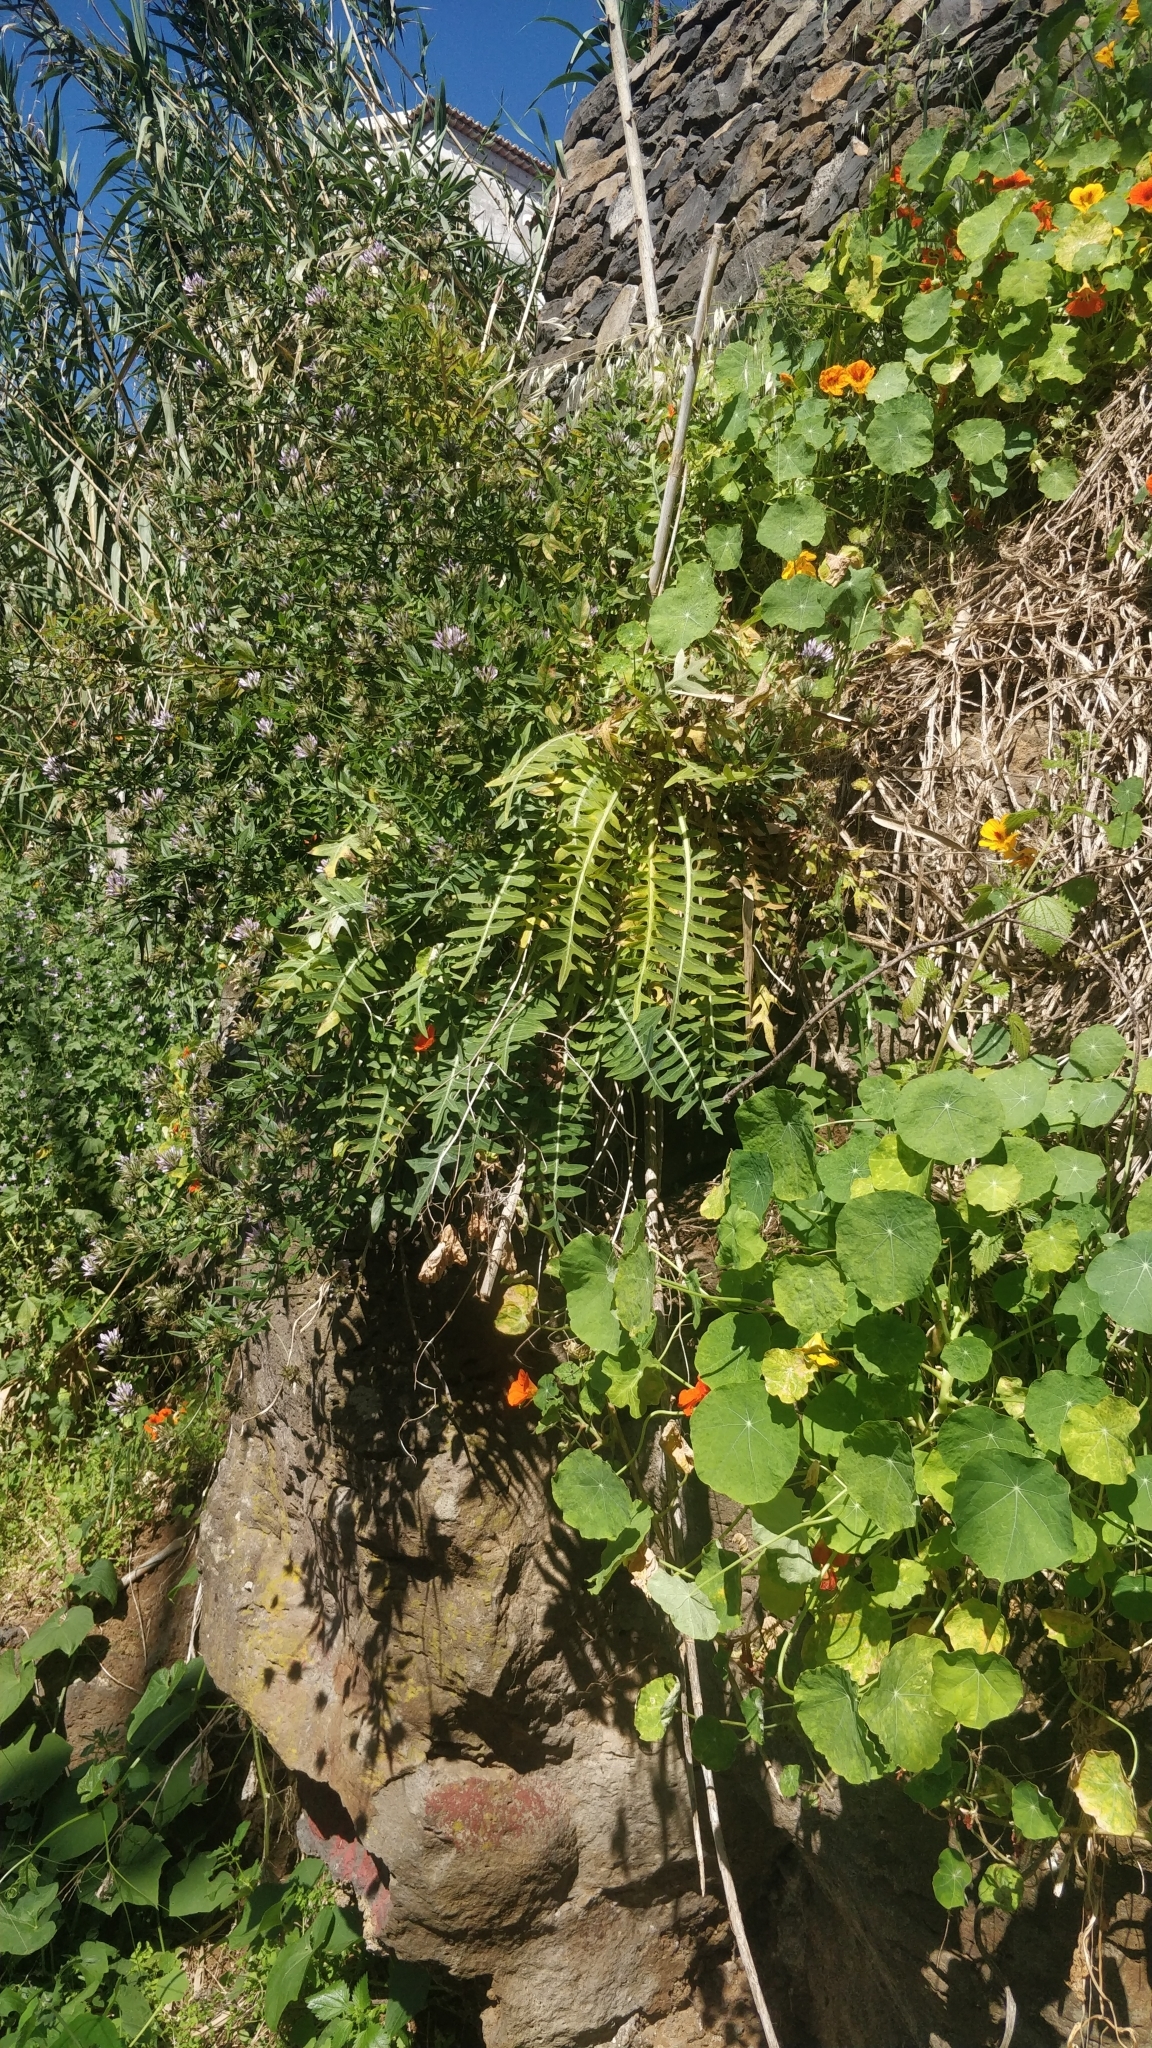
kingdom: Plantae
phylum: Tracheophyta
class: Magnoliopsida
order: Asterales
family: Asteraceae
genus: Sonchus
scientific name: Sonchus ustulatus
